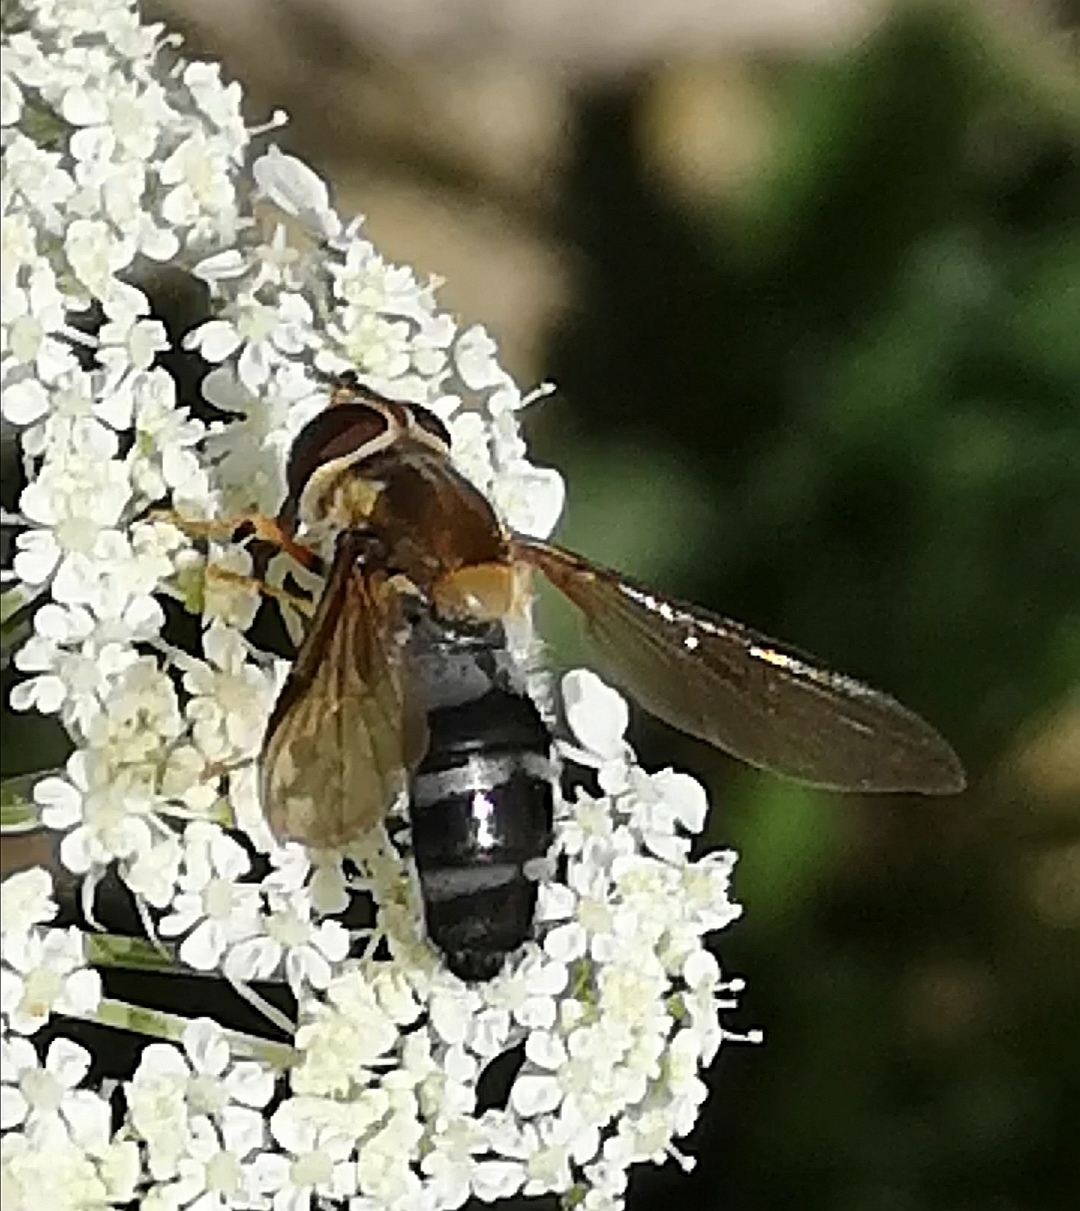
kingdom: Animalia
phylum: Arthropoda
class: Insecta
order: Diptera
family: Syrphidae
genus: Leucozona
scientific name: Leucozona glaucia
